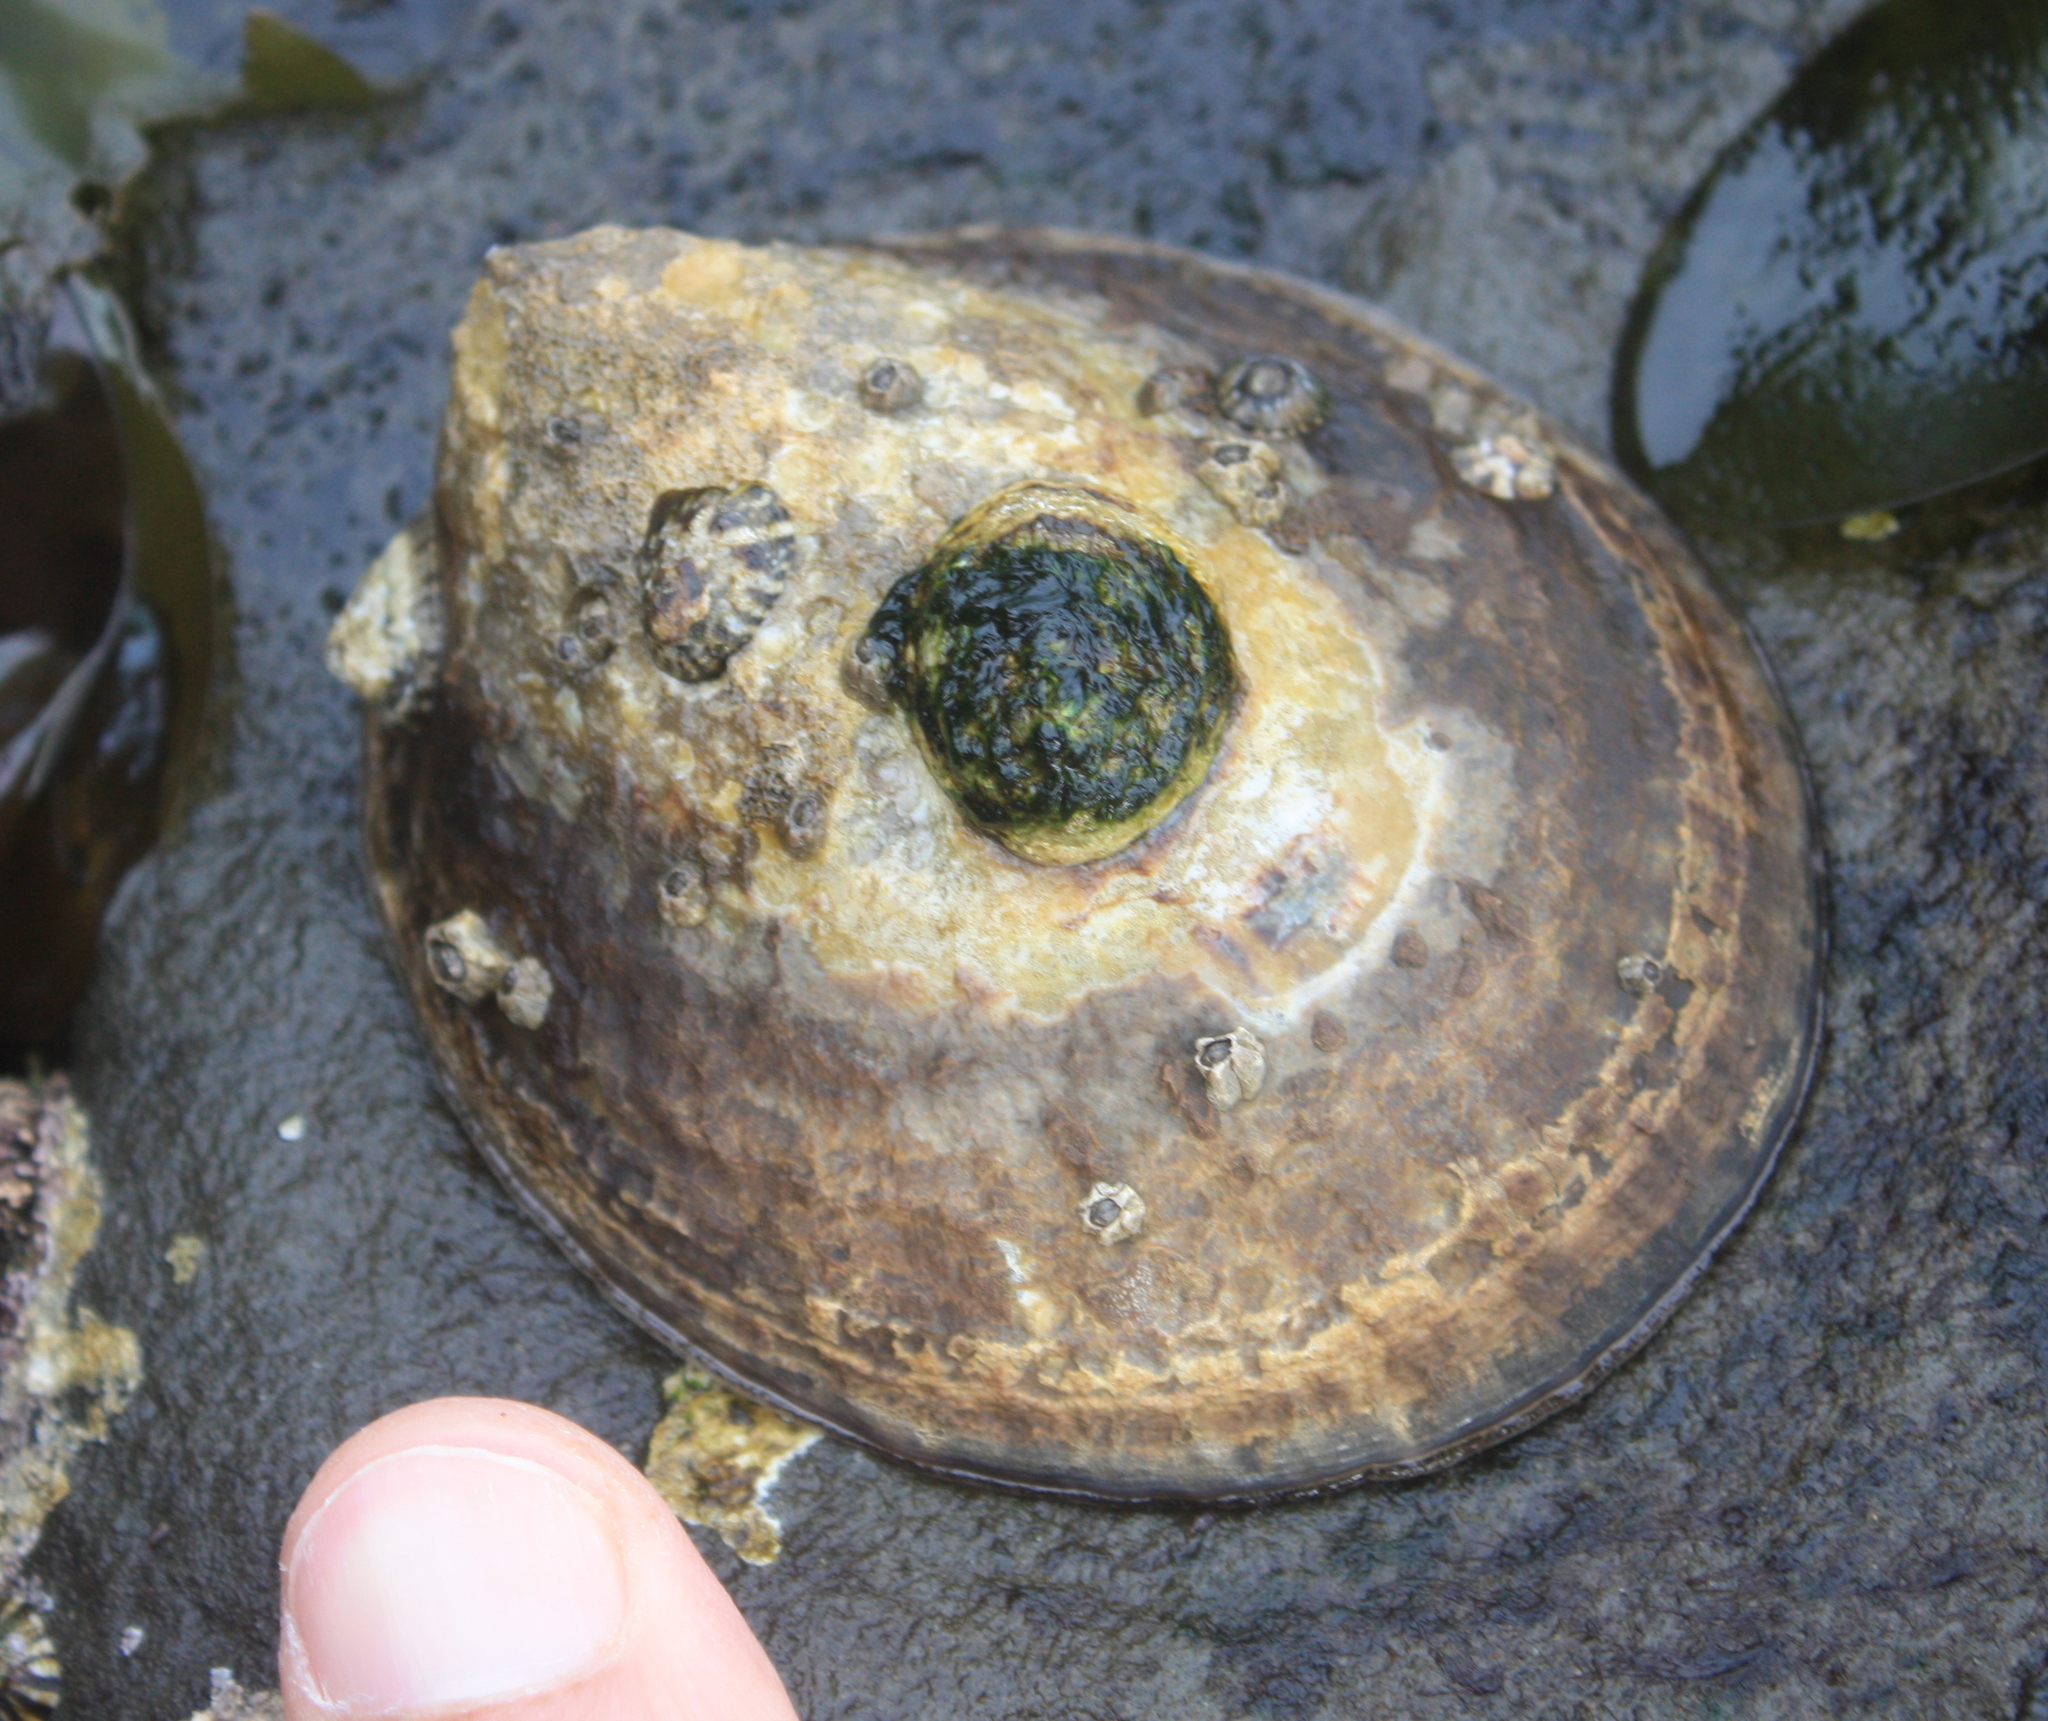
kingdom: Animalia
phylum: Mollusca
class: Gastropoda
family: Lottiidae
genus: Lottia
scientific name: Lottia gigantea
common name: Owl limpet
